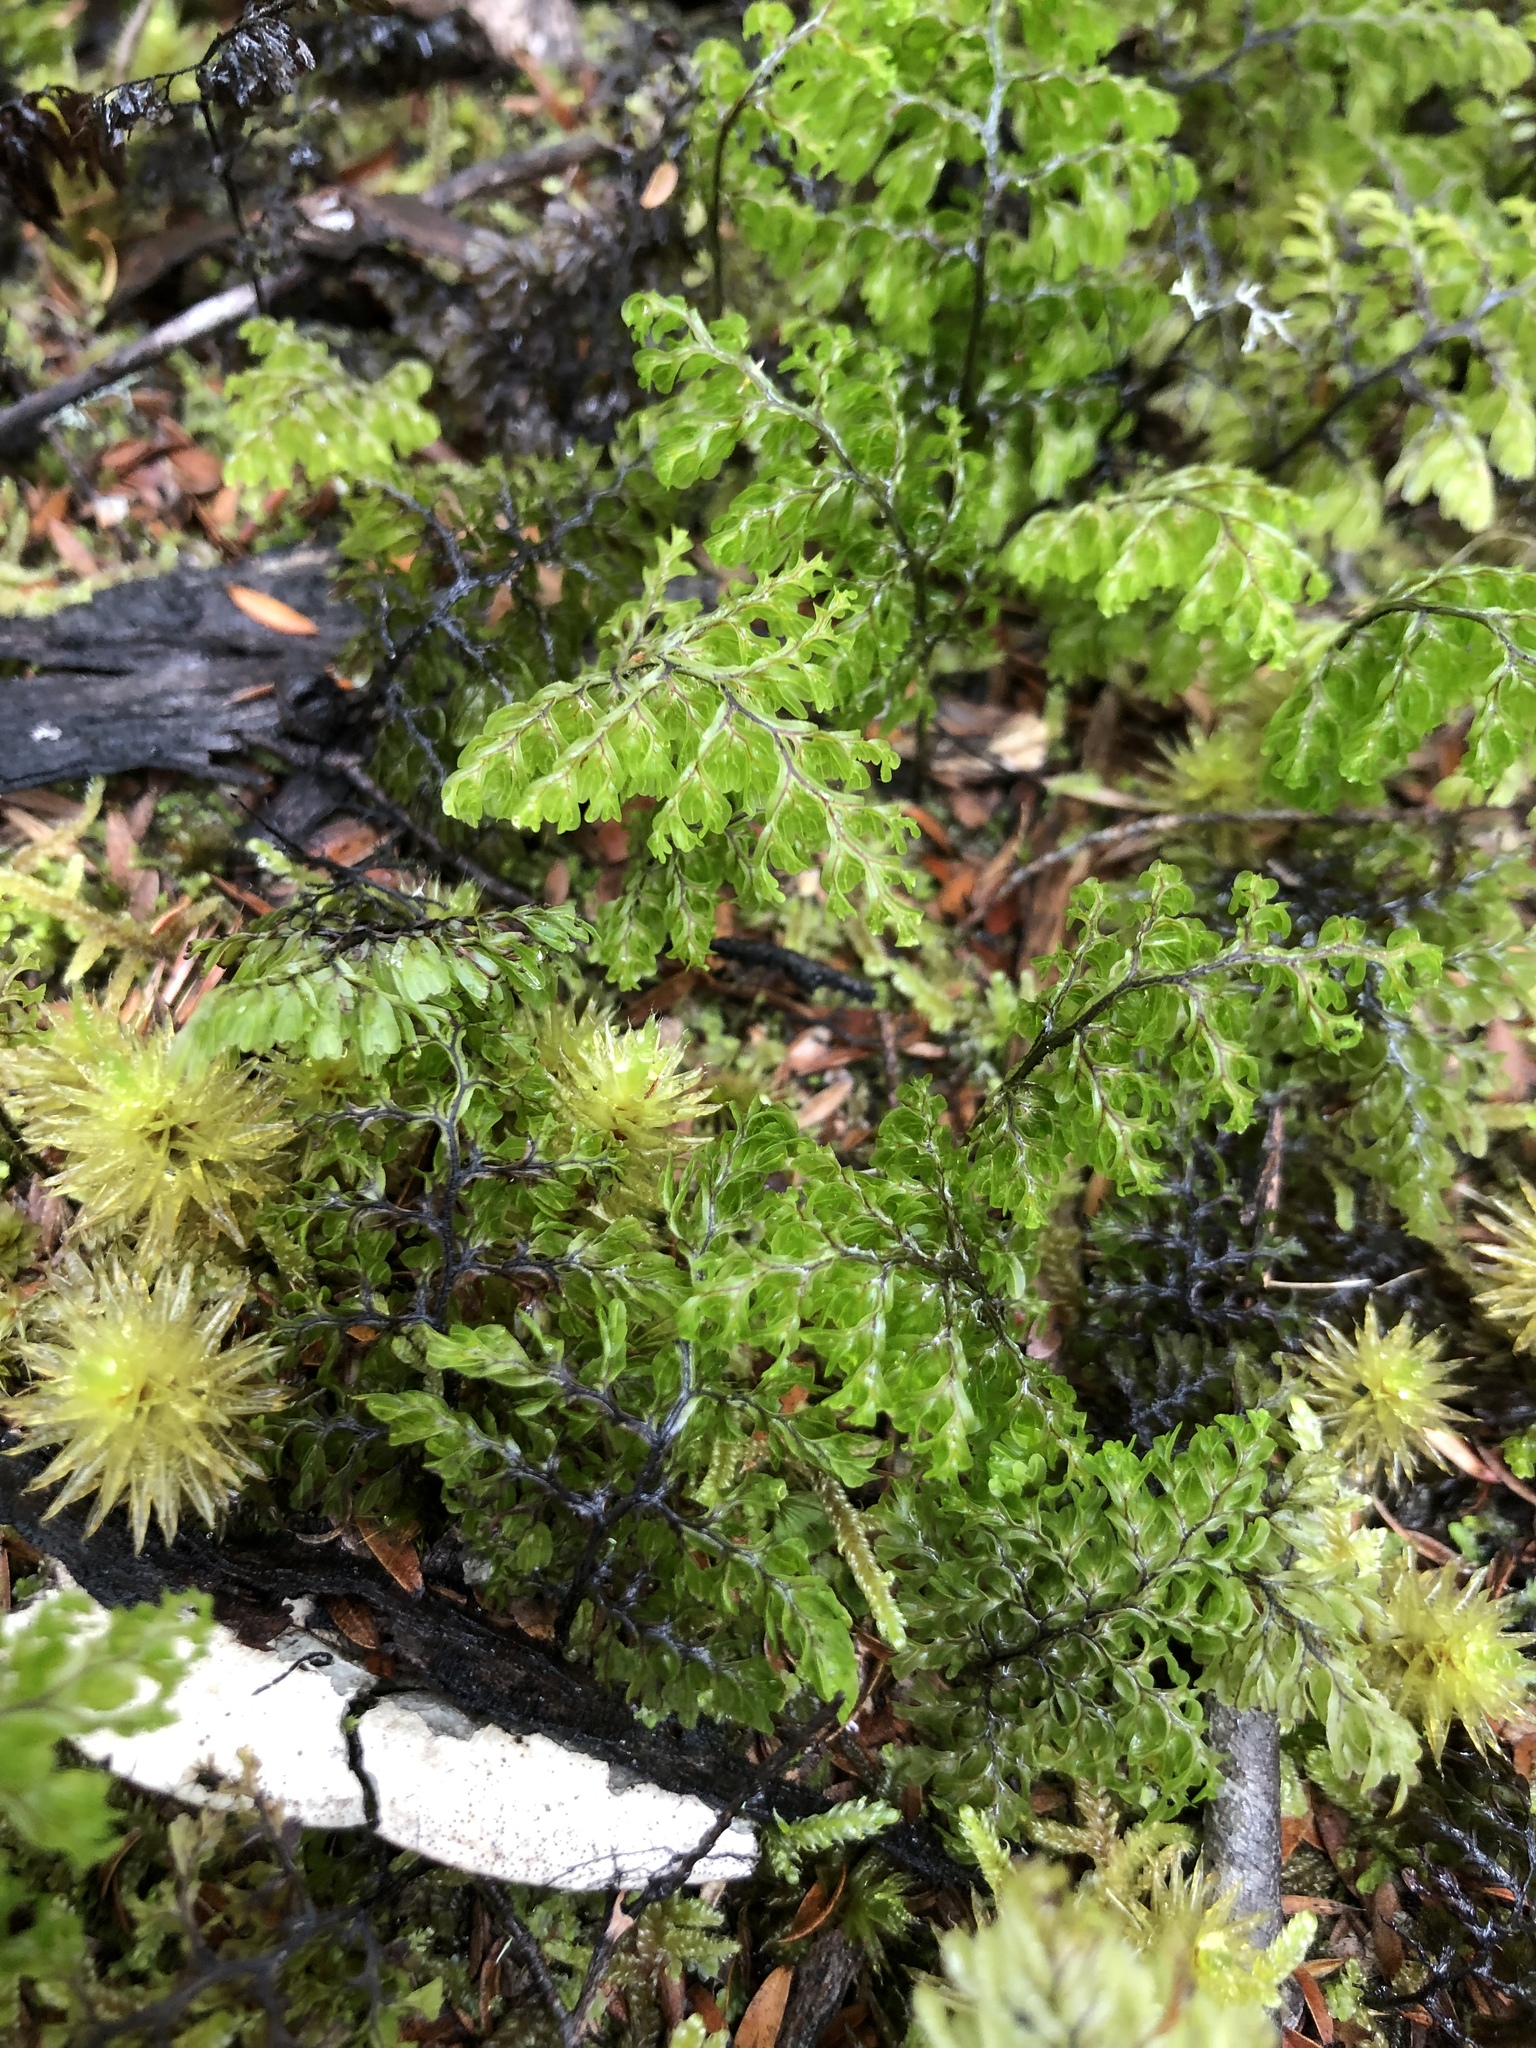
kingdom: Plantae
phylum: Tracheophyta
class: Polypodiopsida
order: Hymenophyllales
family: Hymenophyllaceae
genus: Hymenophyllum
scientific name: Hymenophyllum sanguinolentum
